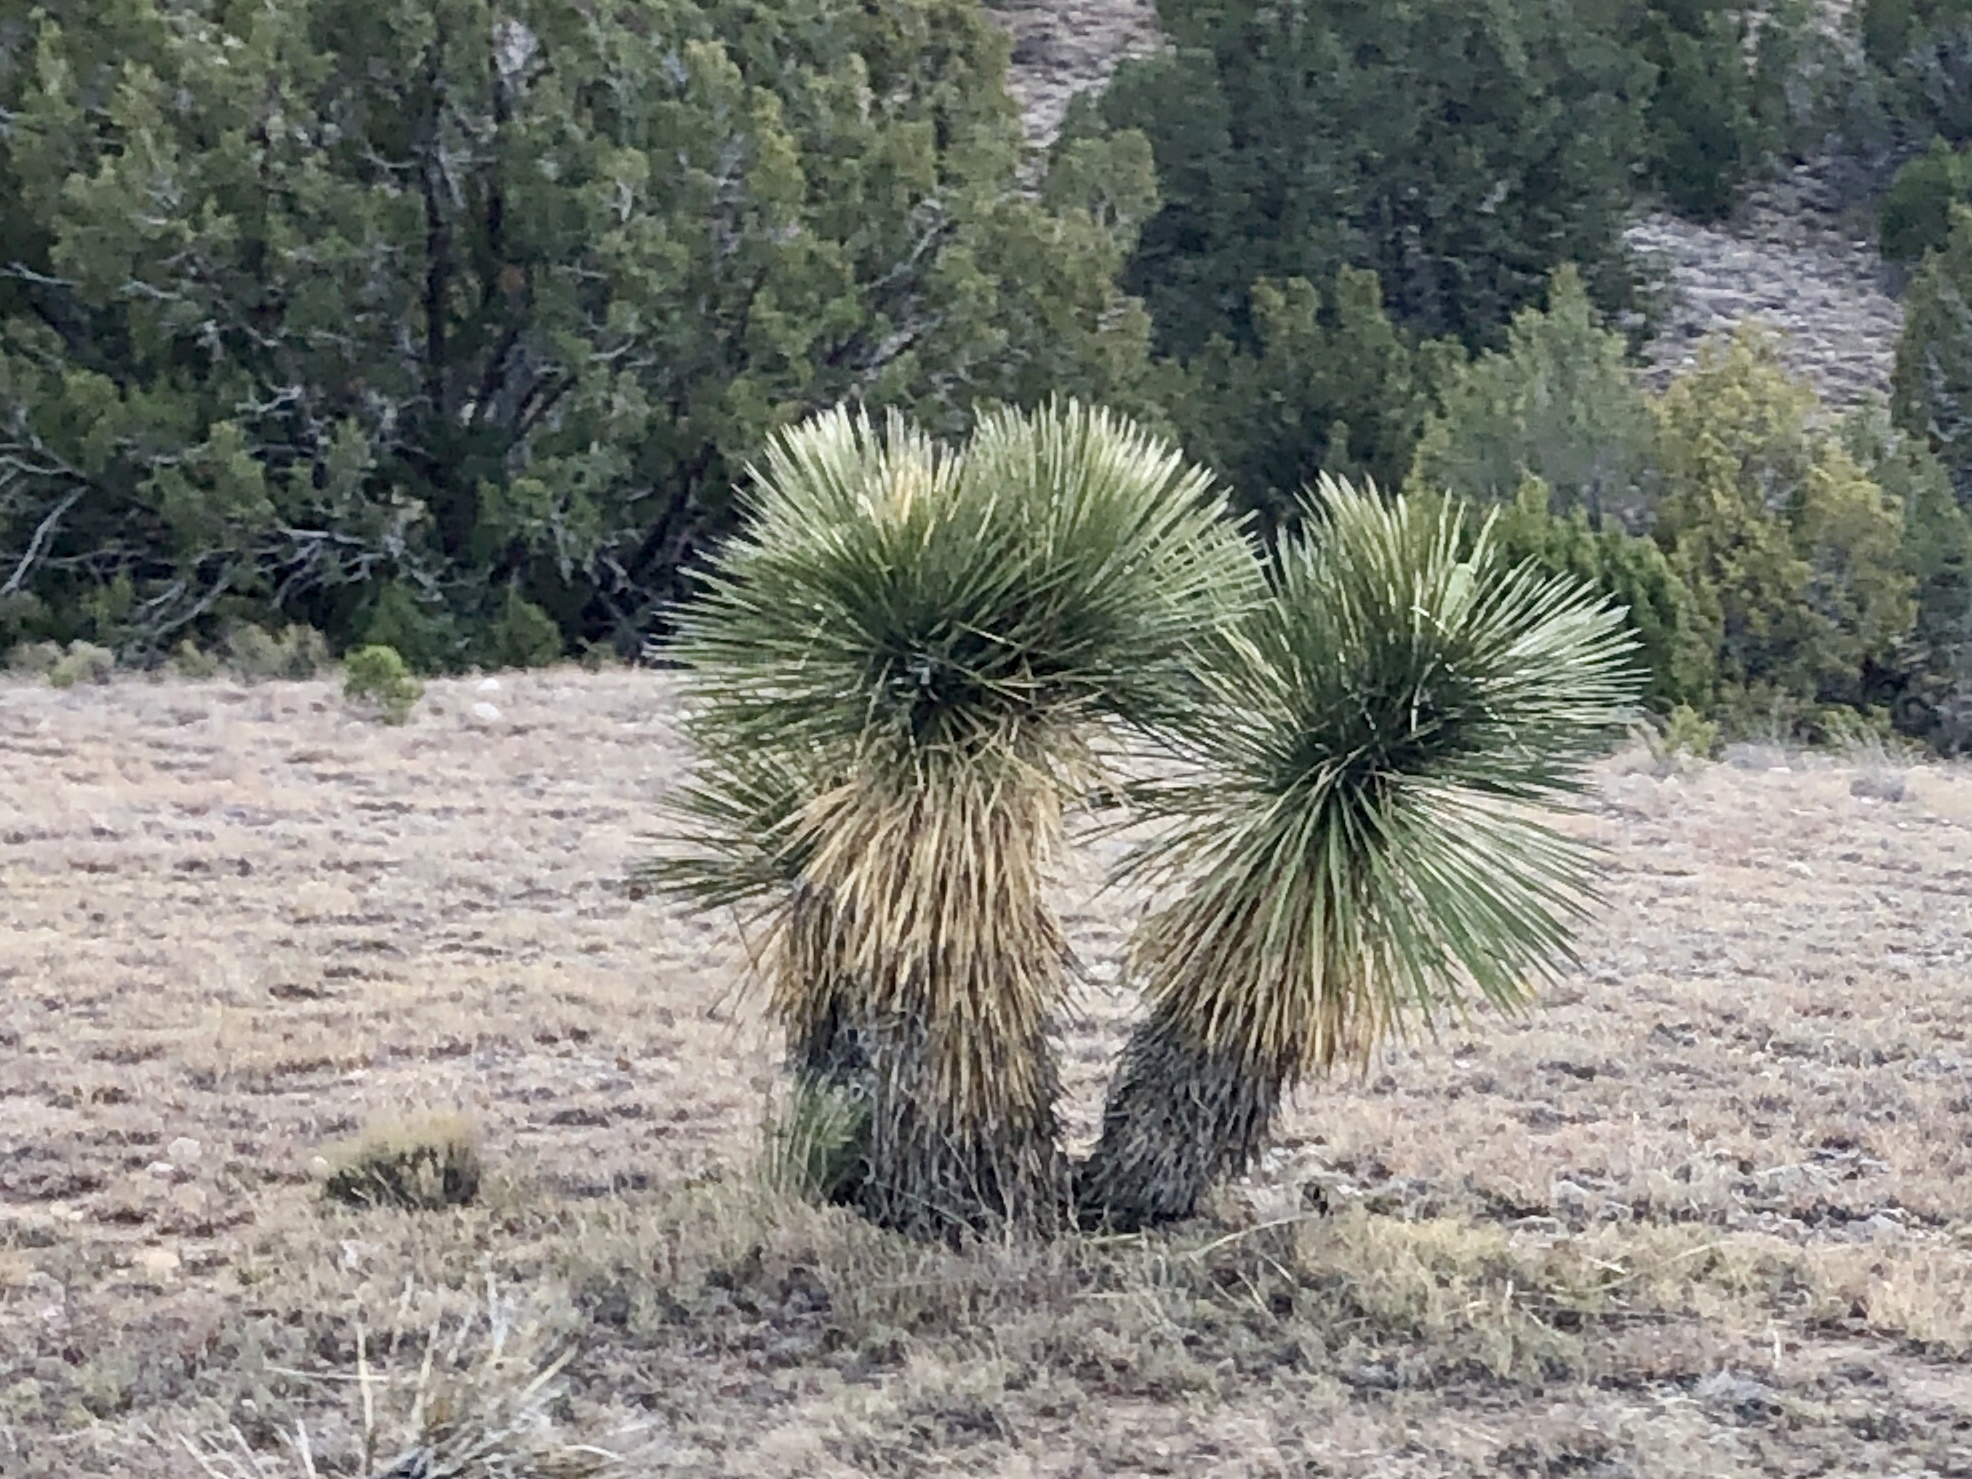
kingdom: Plantae
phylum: Tracheophyta
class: Liliopsida
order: Asparagales
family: Asparagaceae
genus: Yucca
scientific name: Yucca elata
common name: Palmella
